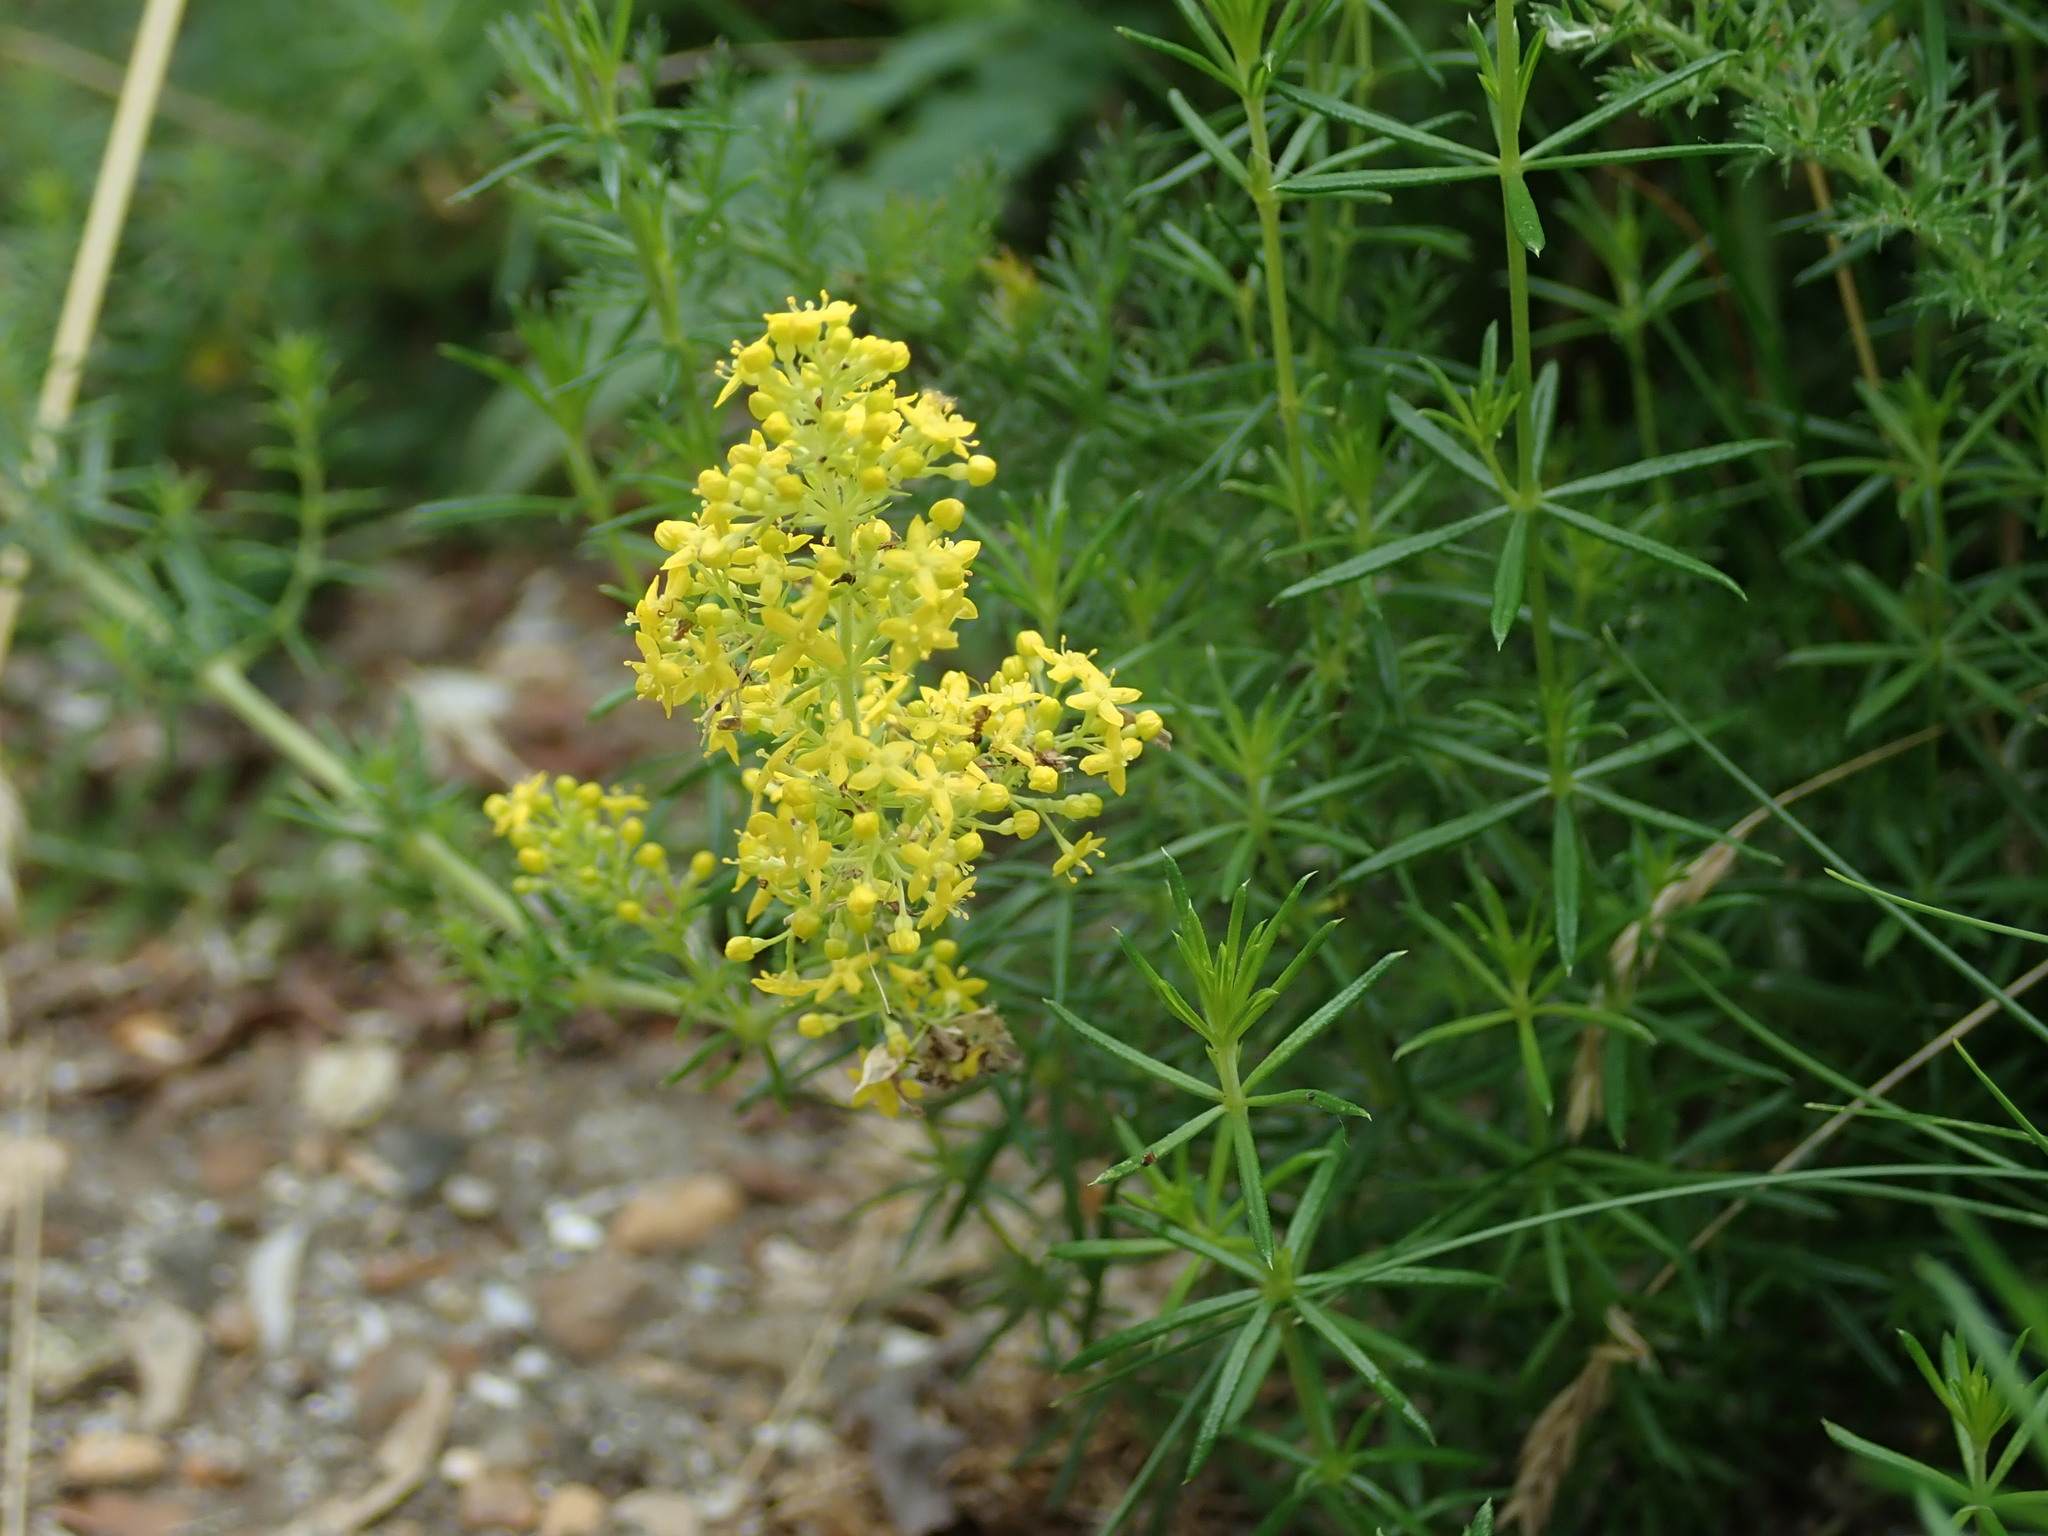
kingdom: Plantae
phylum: Tracheophyta
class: Magnoliopsida
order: Gentianales
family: Rubiaceae
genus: Galium
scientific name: Galium verum
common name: Lady's bedstraw
